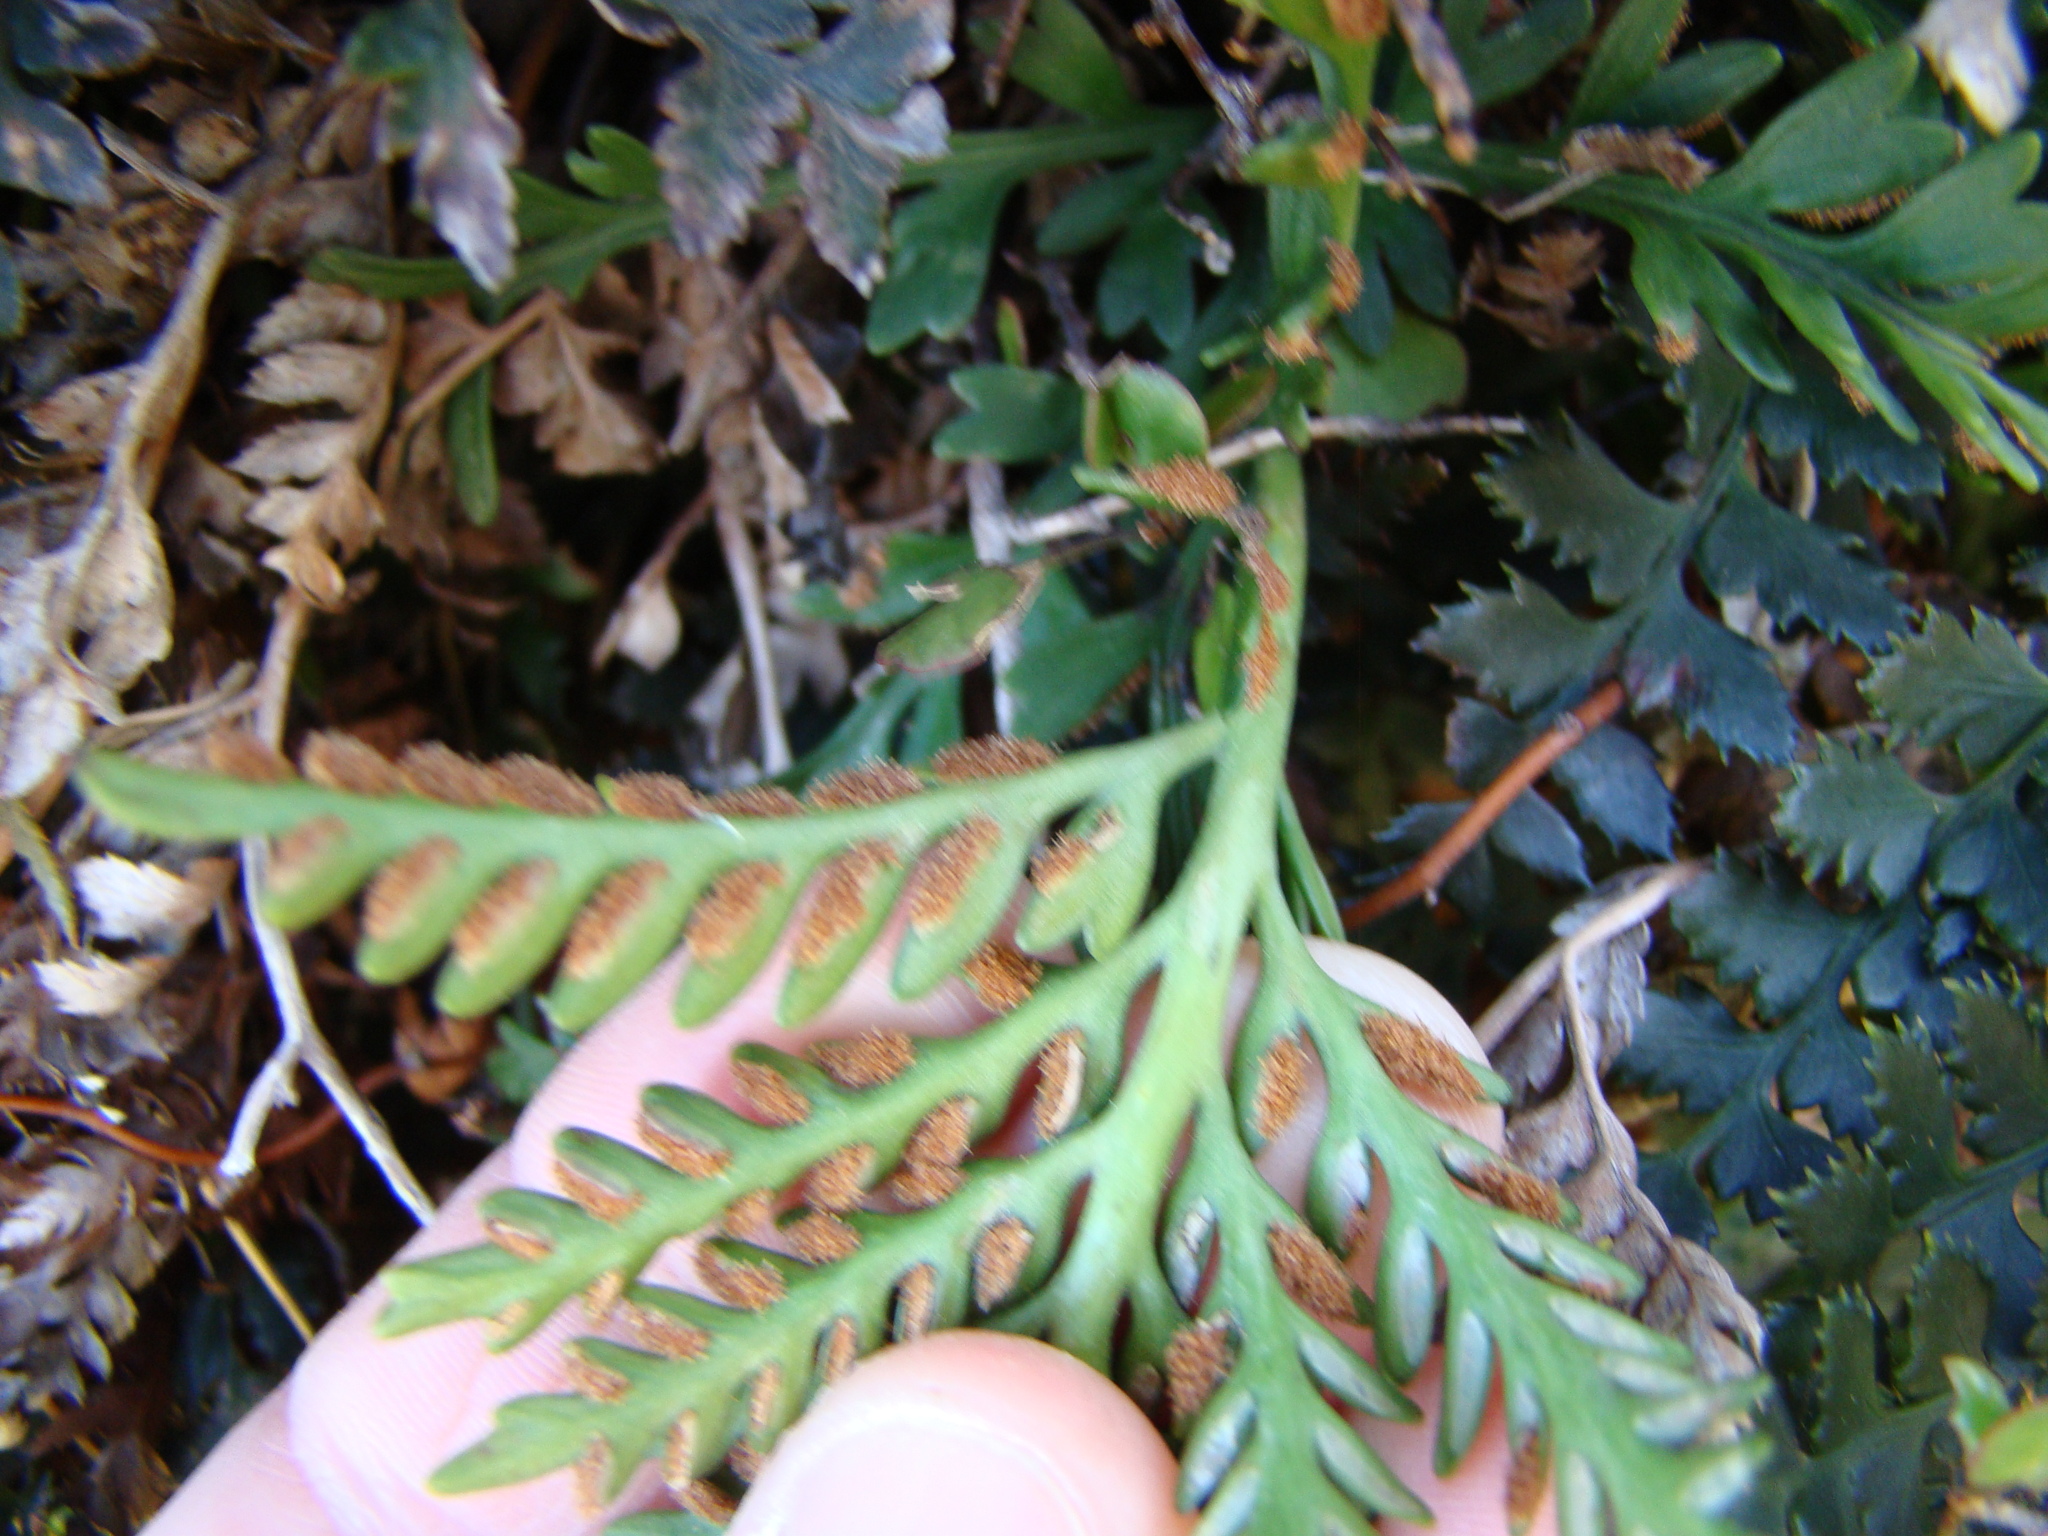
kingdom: Plantae
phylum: Tracheophyta
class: Polypodiopsida
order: Polypodiales
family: Aspleniaceae
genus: Asplenium
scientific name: Asplenium appendiculatum
